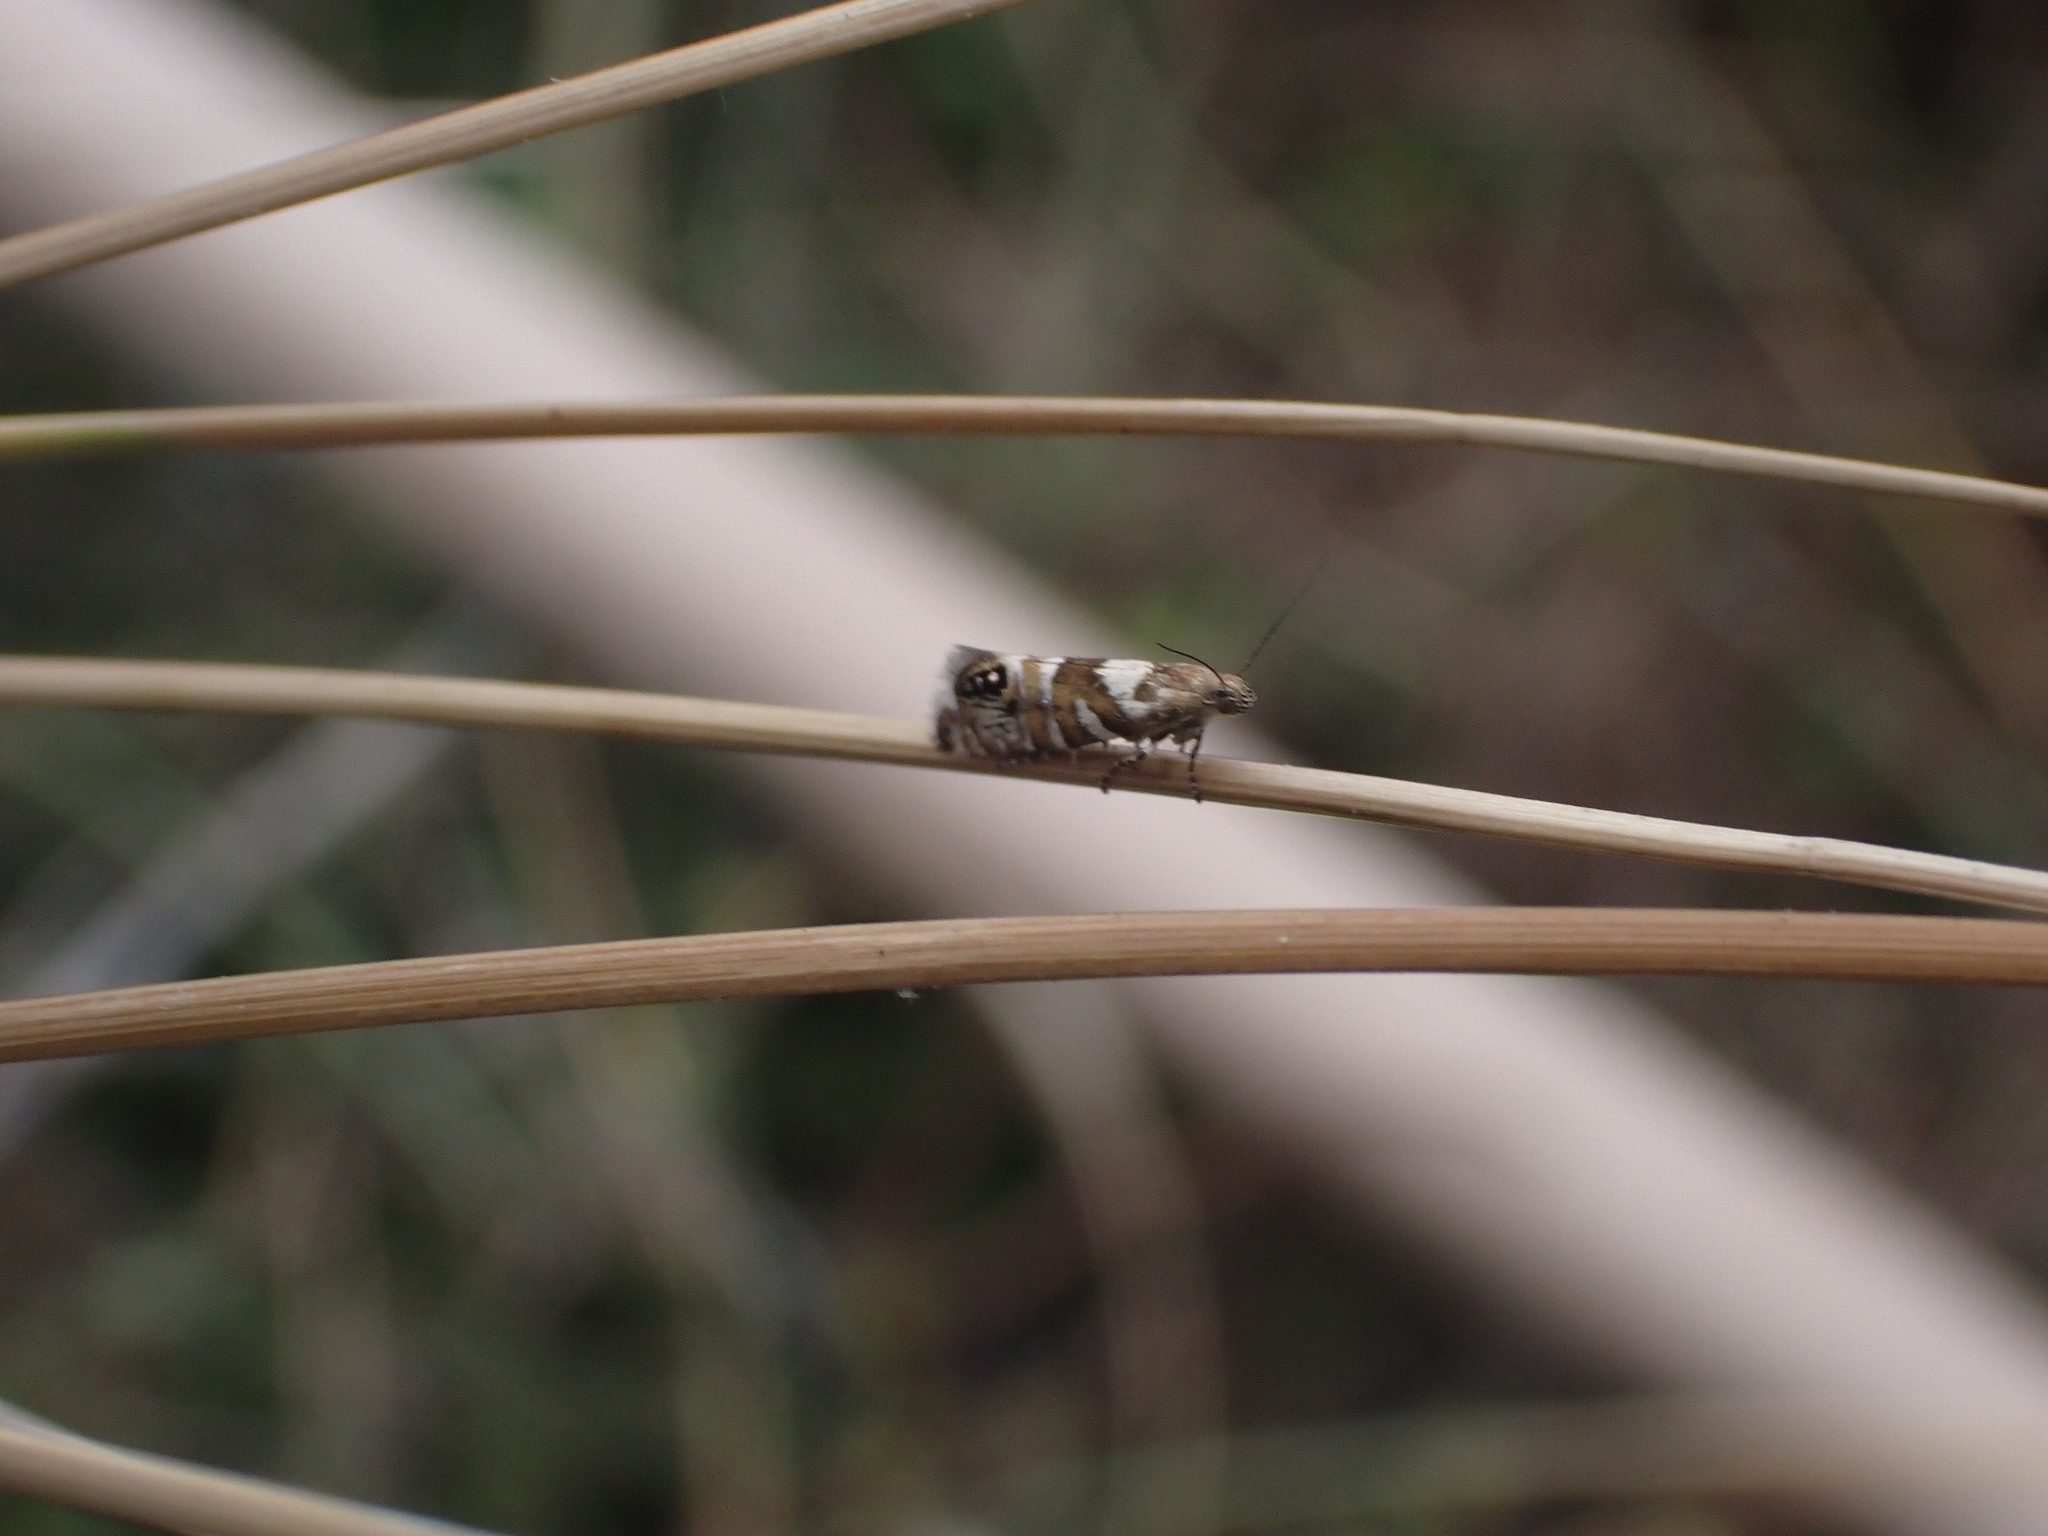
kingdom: Animalia
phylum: Arthropoda
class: Insecta
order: Lepidoptera
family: Glyphipterigidae
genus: Glyphipterix
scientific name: Glyphipterix similis
